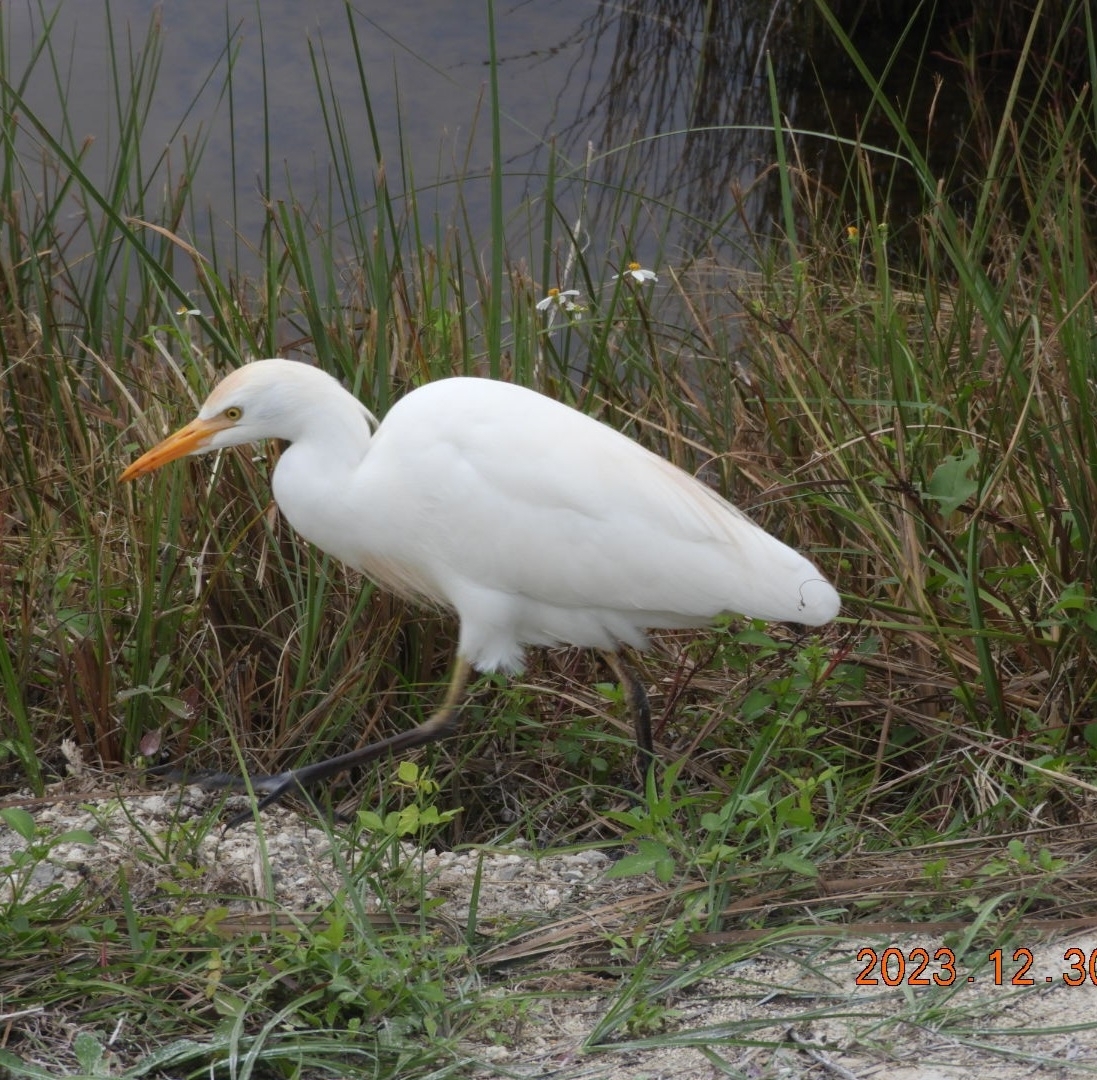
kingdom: Animalia
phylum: Chordata
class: Aves
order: Pelecaniformes
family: Ardeidae
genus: Bubulcus
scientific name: Bubulcus ibis
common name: Cattle egret
